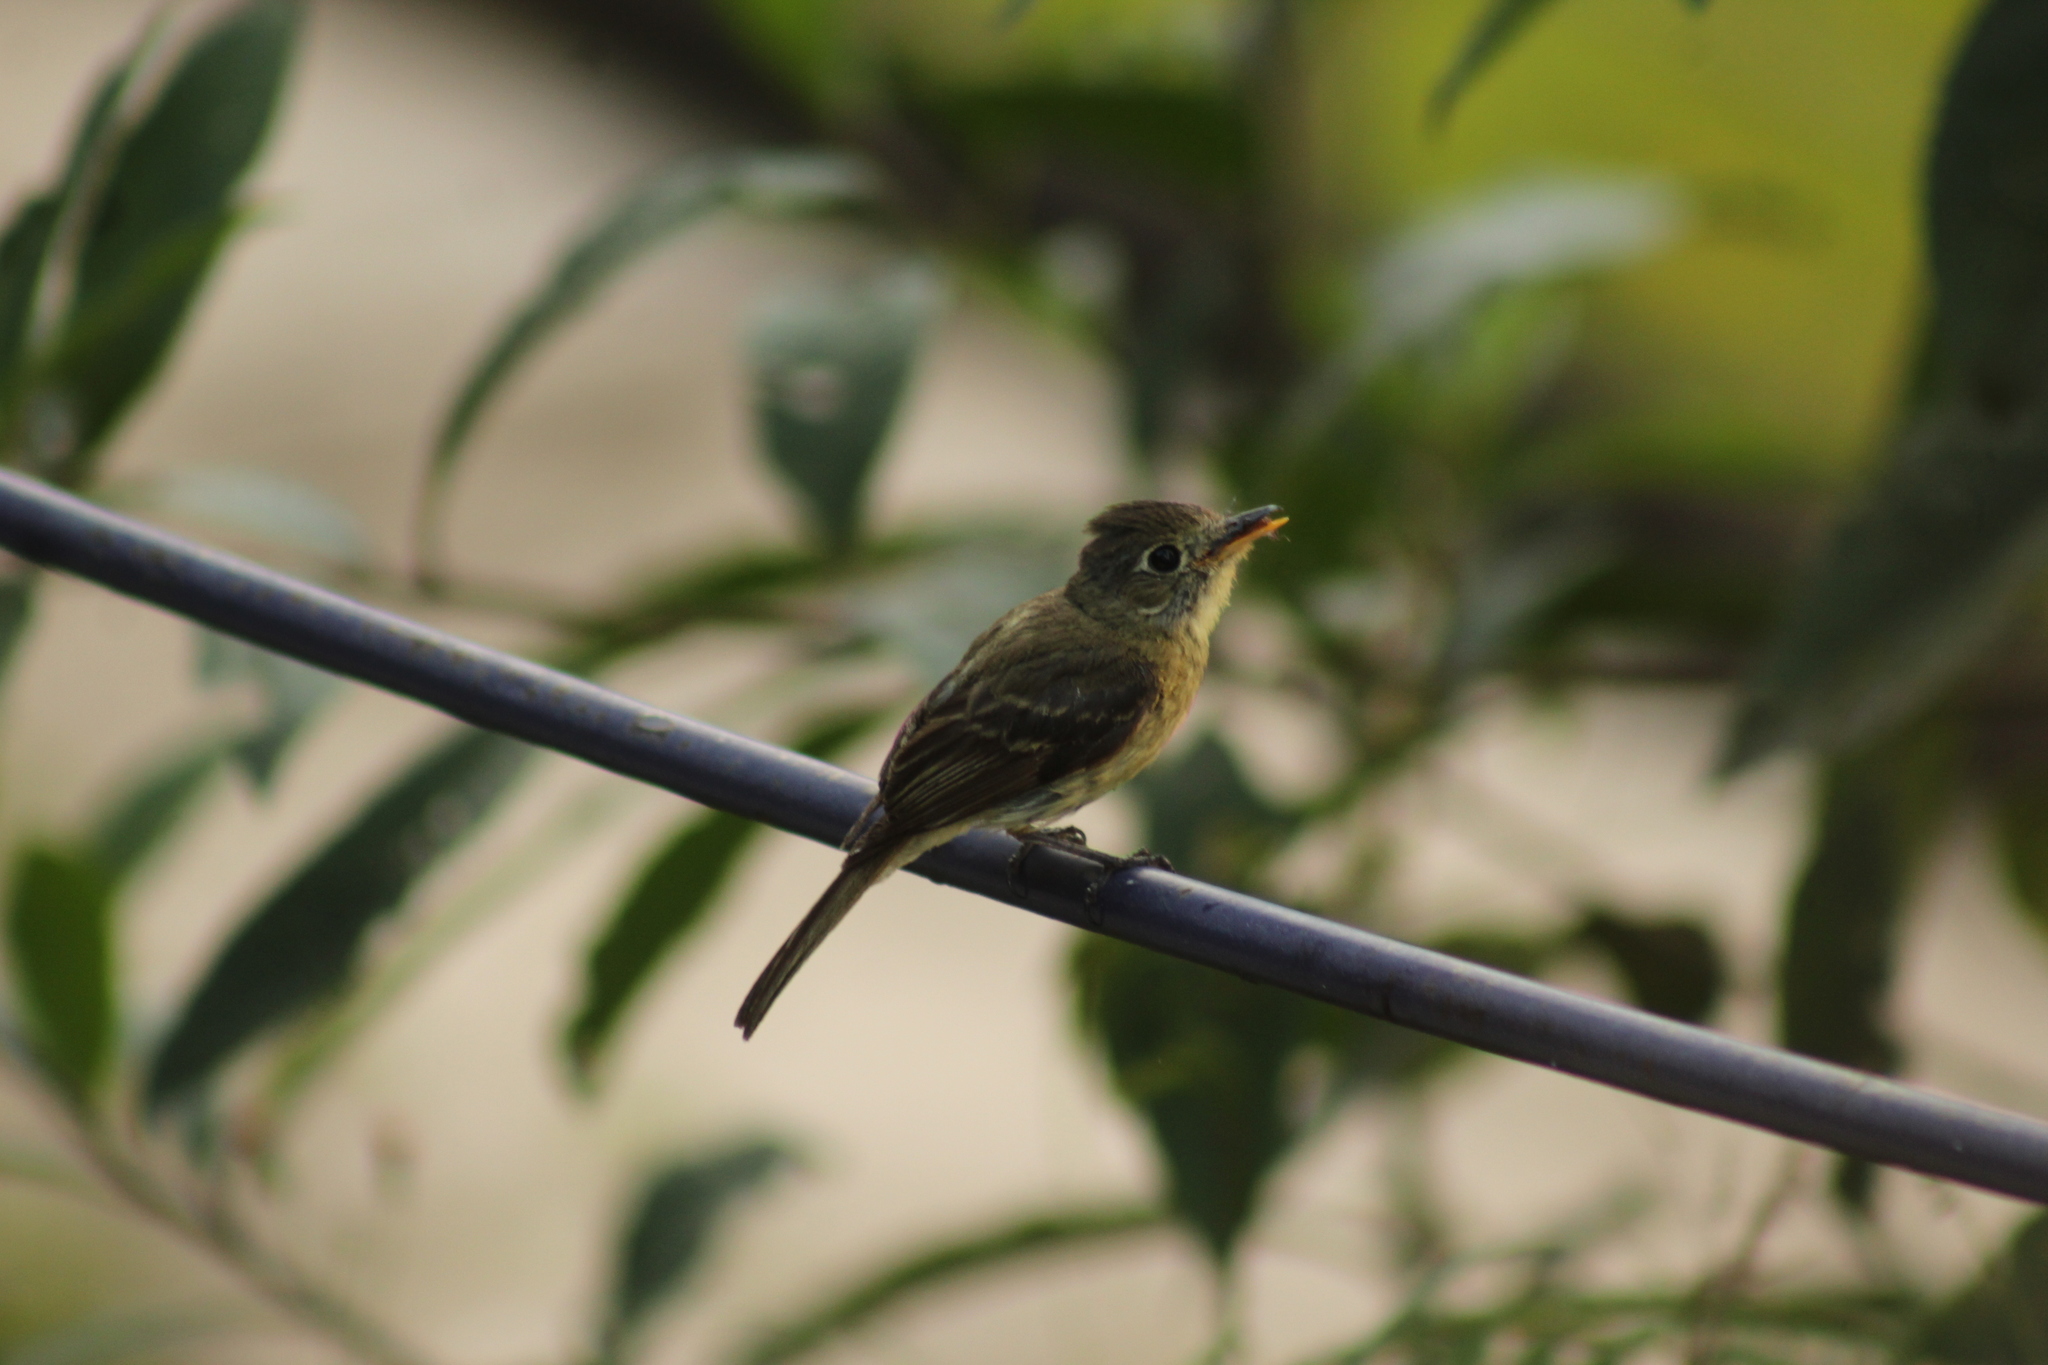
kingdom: Animalia
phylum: Chordata
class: Aves
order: Passeriformes
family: Tyrannidae
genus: Empidonax
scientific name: Empidonax difficilis
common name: Pacific-slope flycatcher
